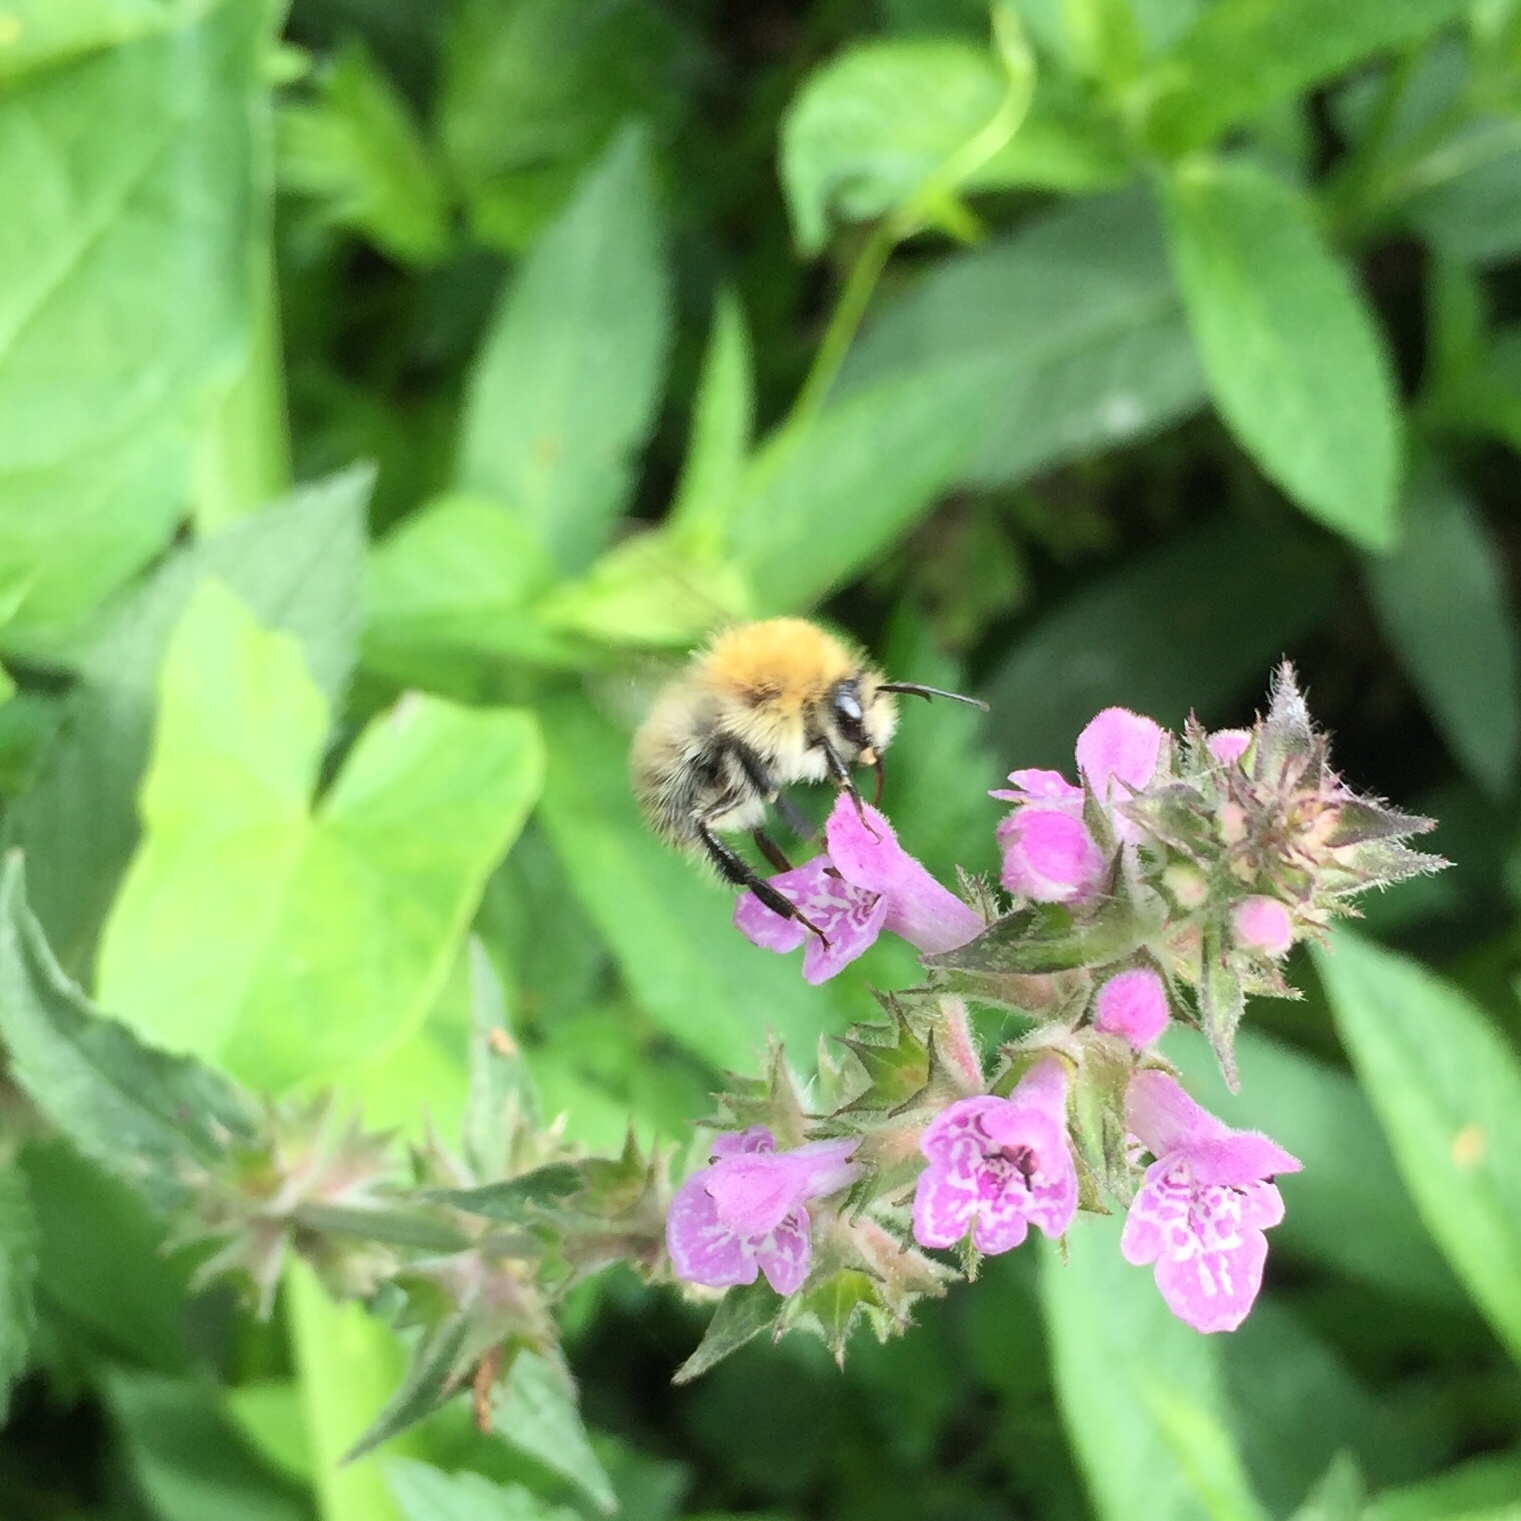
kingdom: Animalia
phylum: Arthropoda
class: Insecta
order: Hymenoptera
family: Apidae
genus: Bombus
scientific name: Bombus pascuorum
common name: Common carder bee
